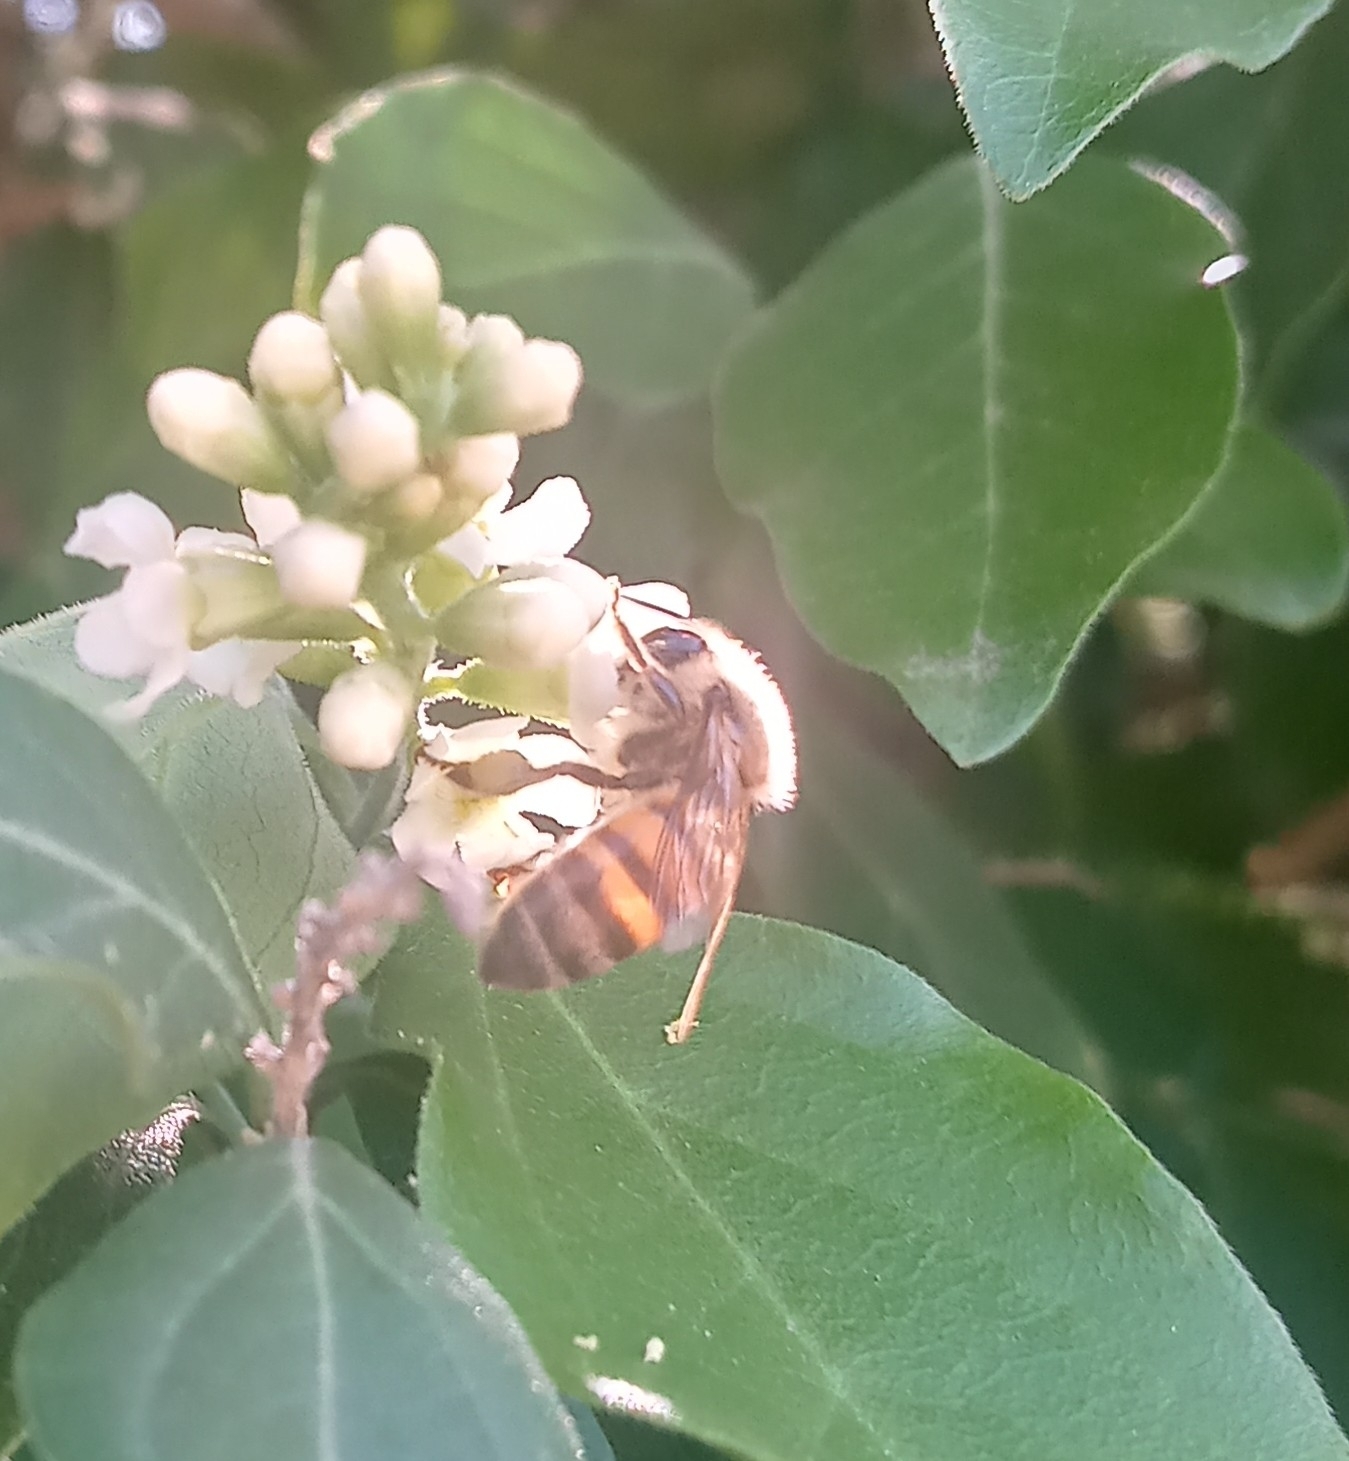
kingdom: Animalia
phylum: Arthropoda
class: Insecta
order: Hymenoptera
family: Apidae
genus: Apis
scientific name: Apis mellifera
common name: Honey bee
